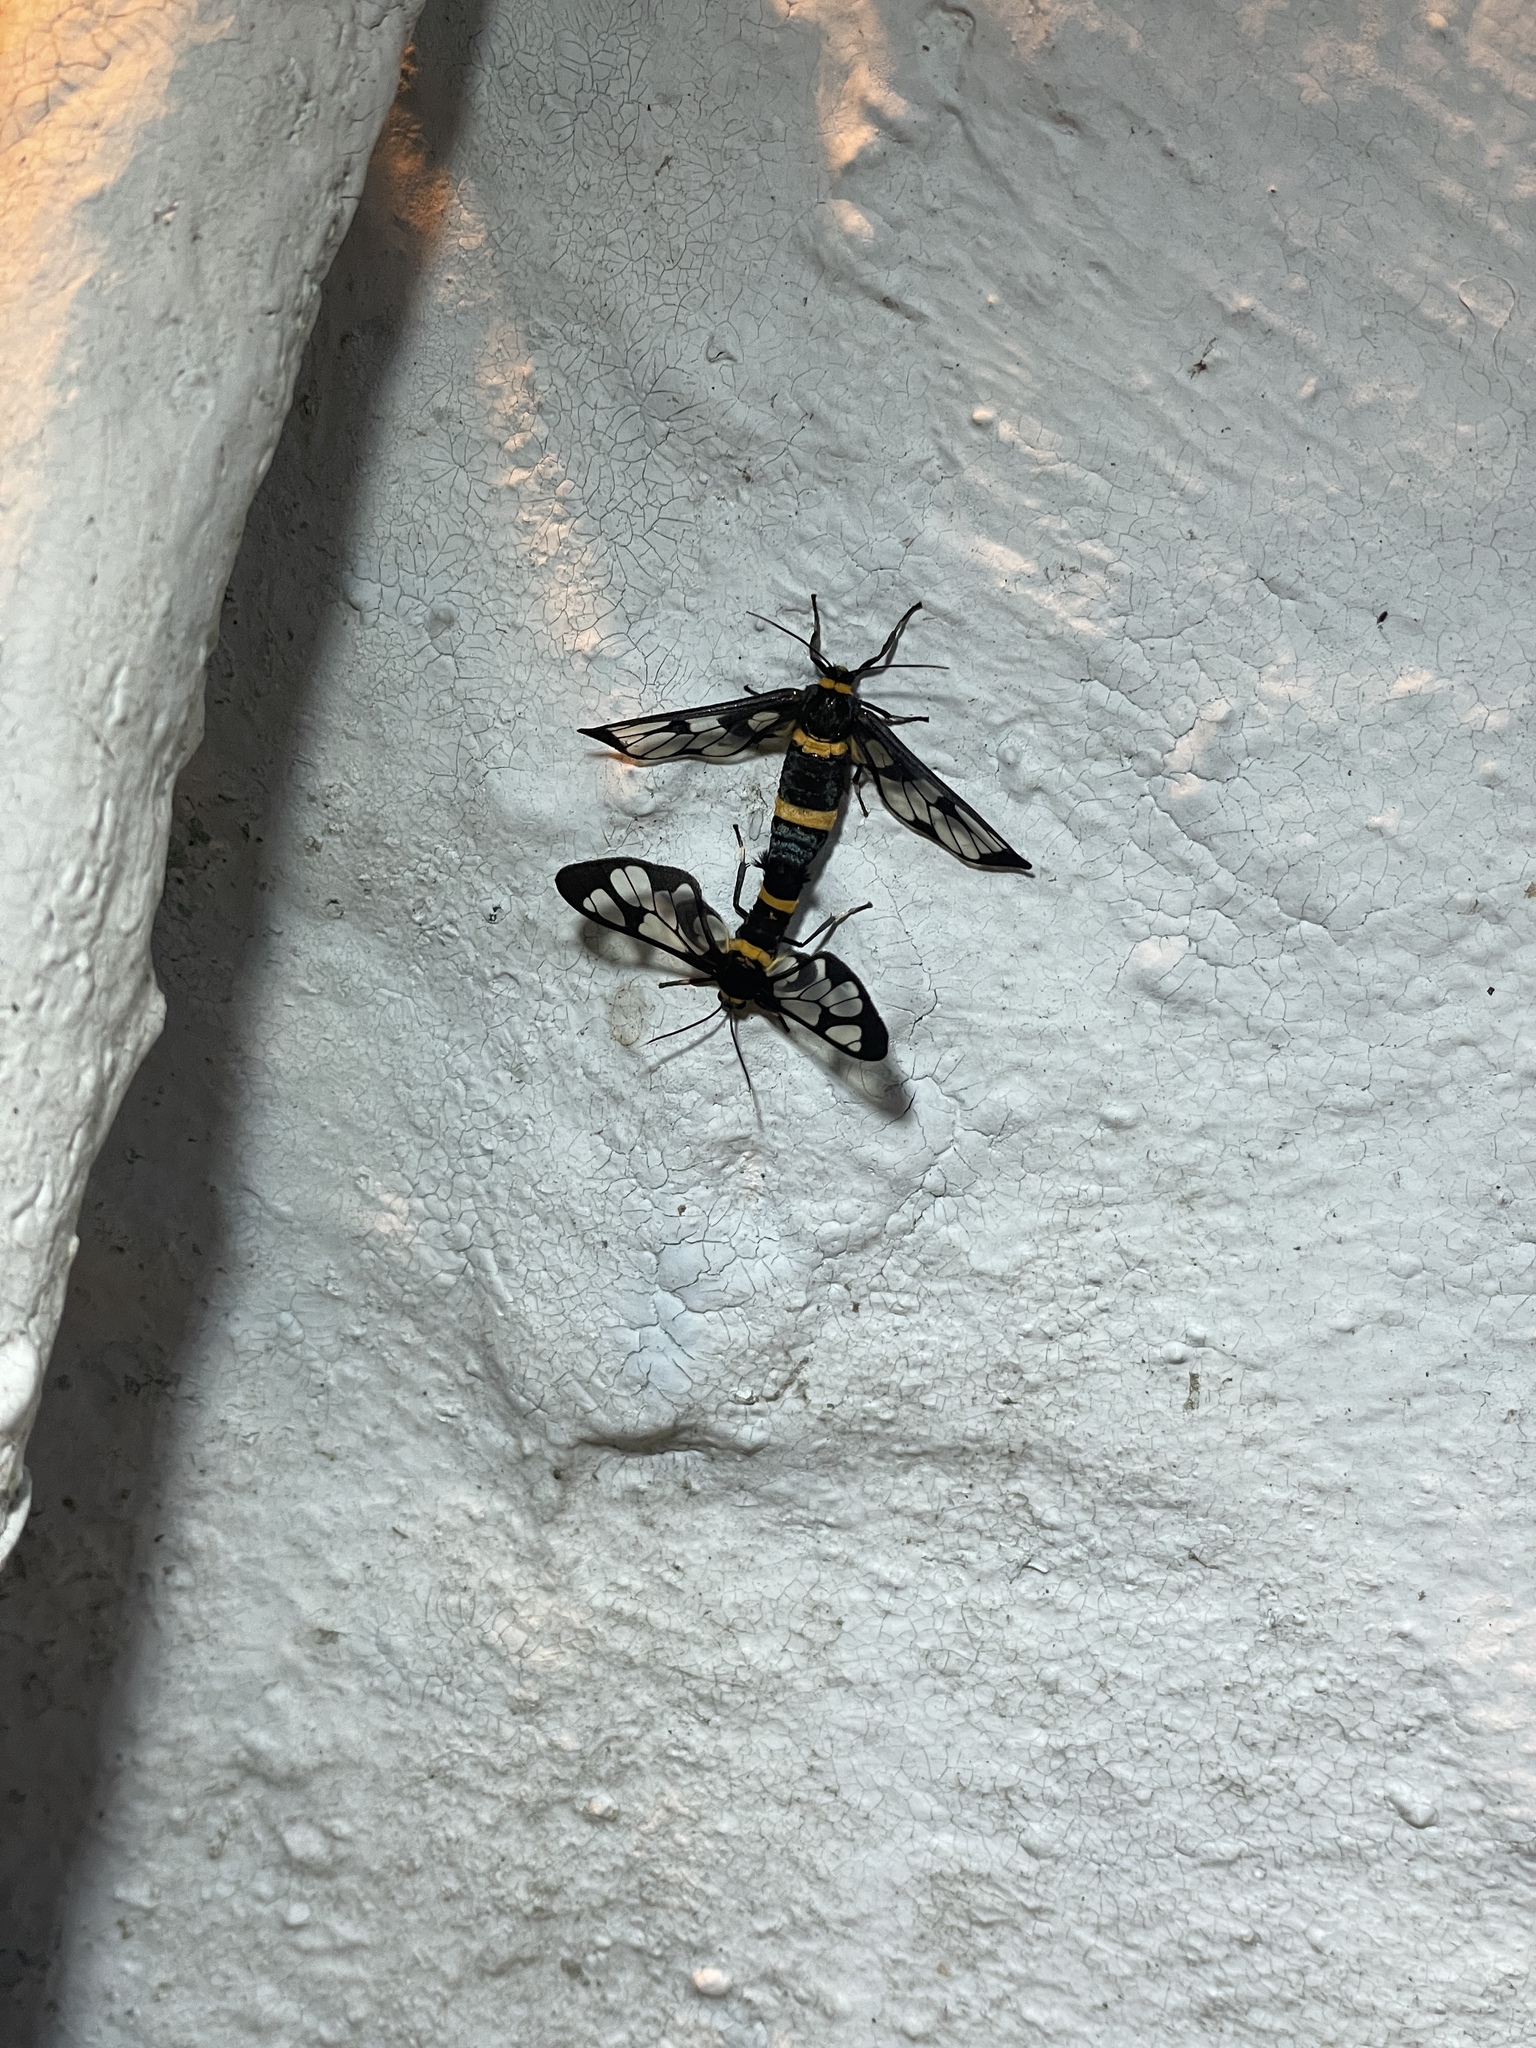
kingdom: Animalia
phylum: Arthropoda
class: Insecta
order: Lepidoptera
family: Erebidae
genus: Syntomoides
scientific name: Syntomoides imaon
